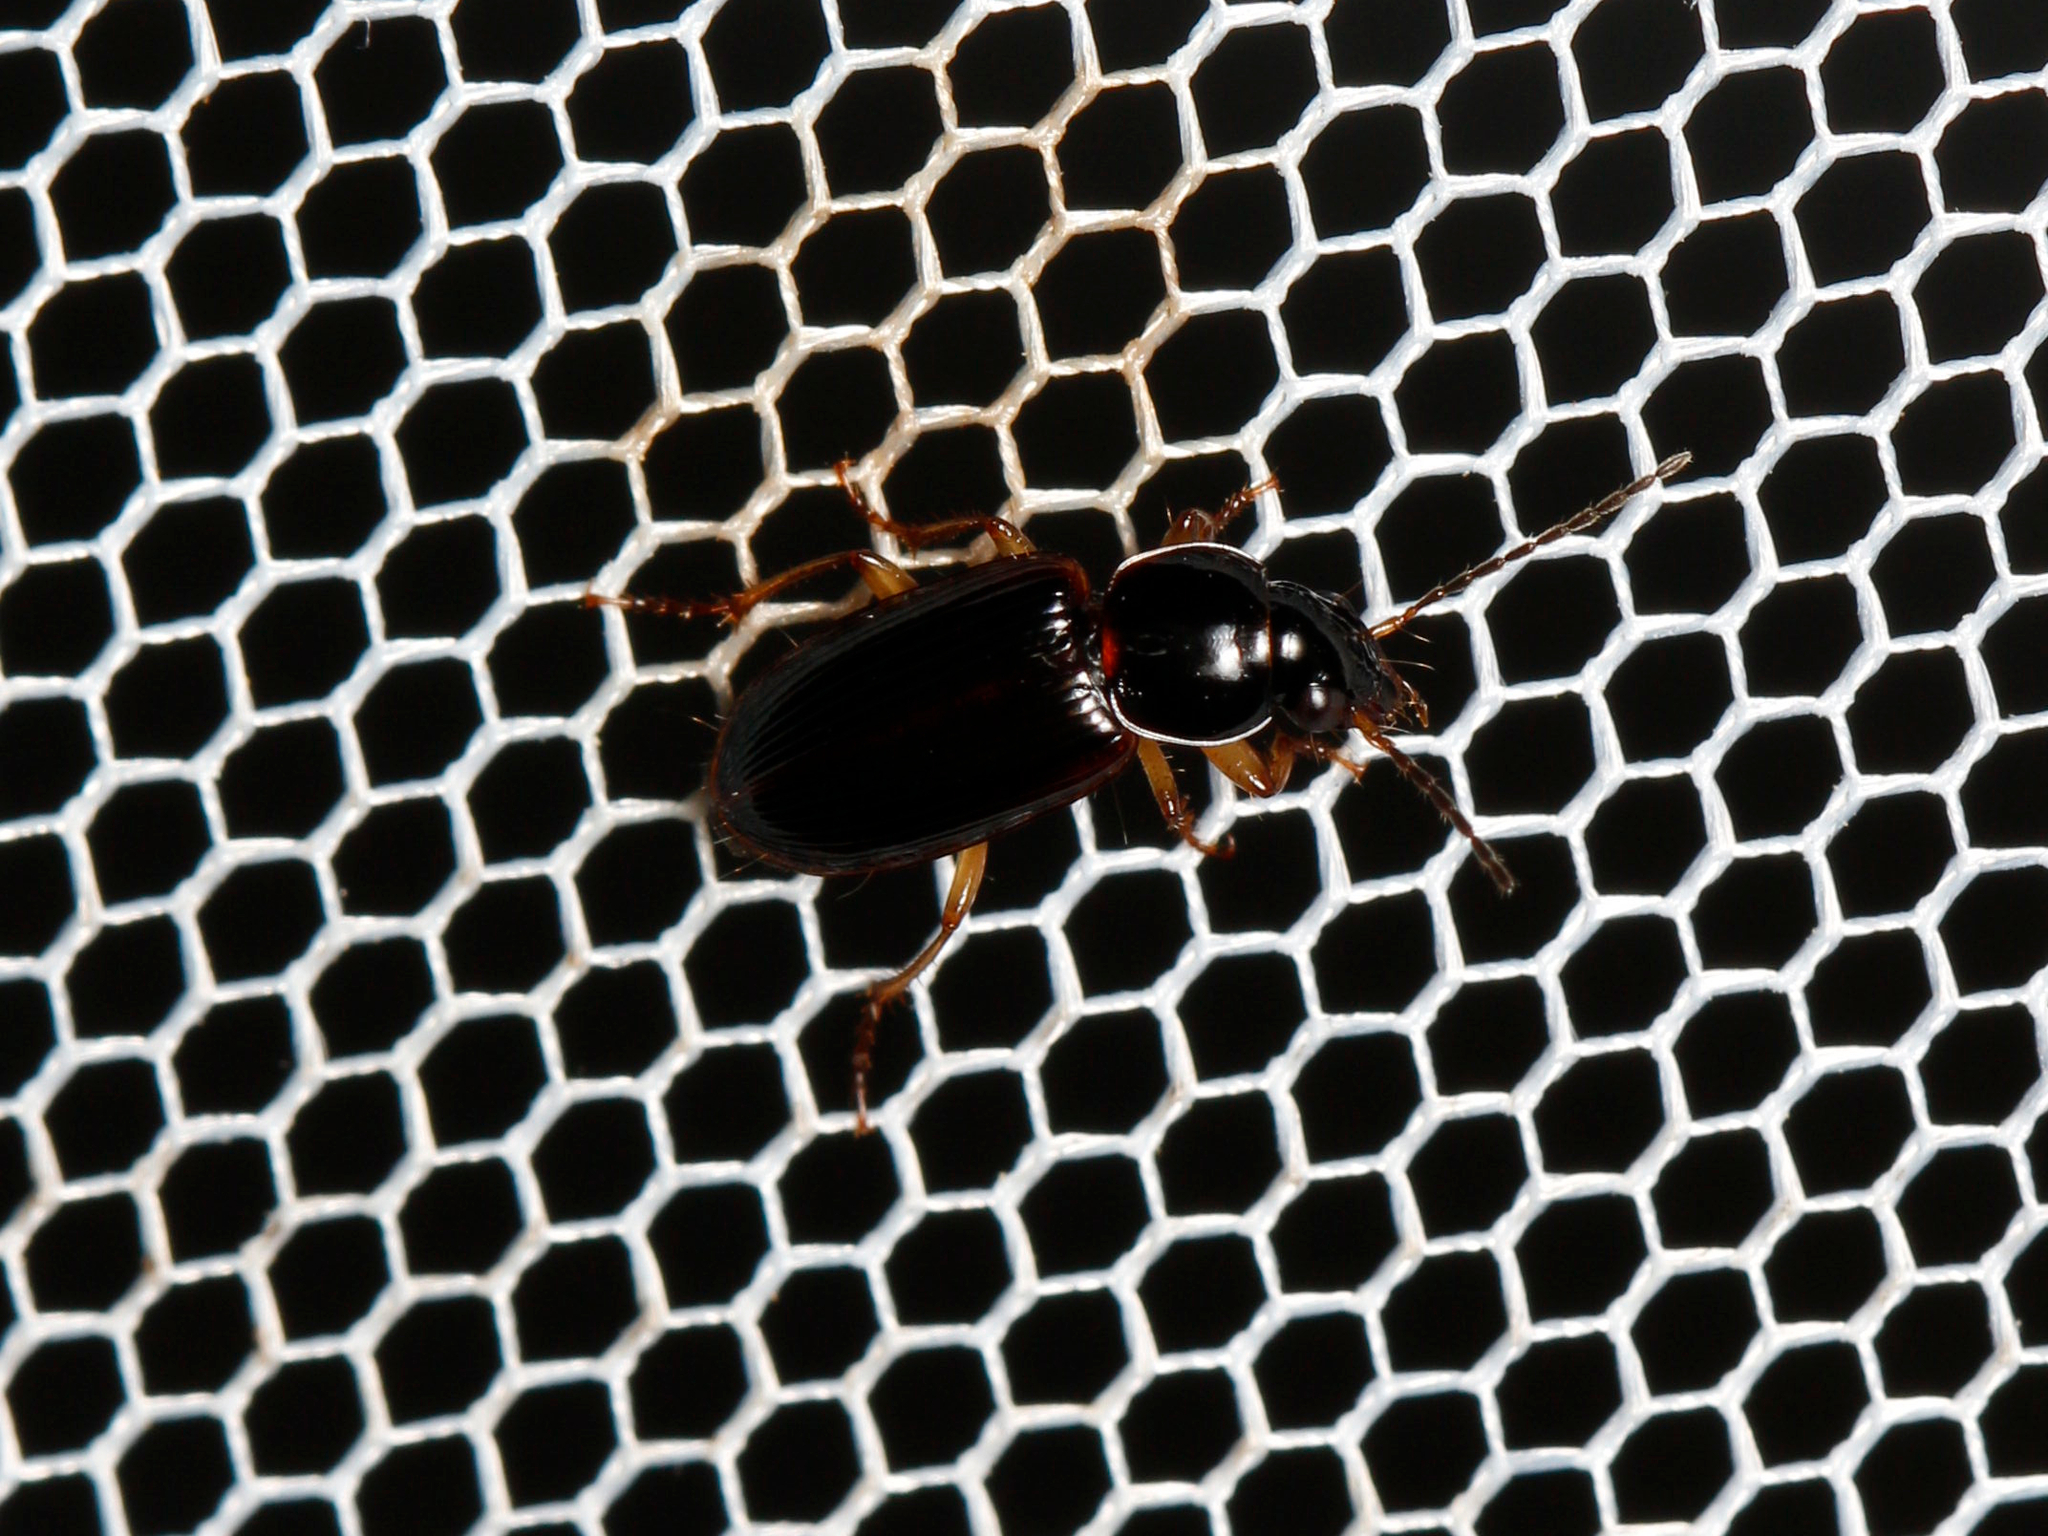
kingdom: Animalia
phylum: Arthropoda
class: Insecta
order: Coleoptera
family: Carabidae
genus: Stenolophus
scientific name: Stenolophus ochropezus
